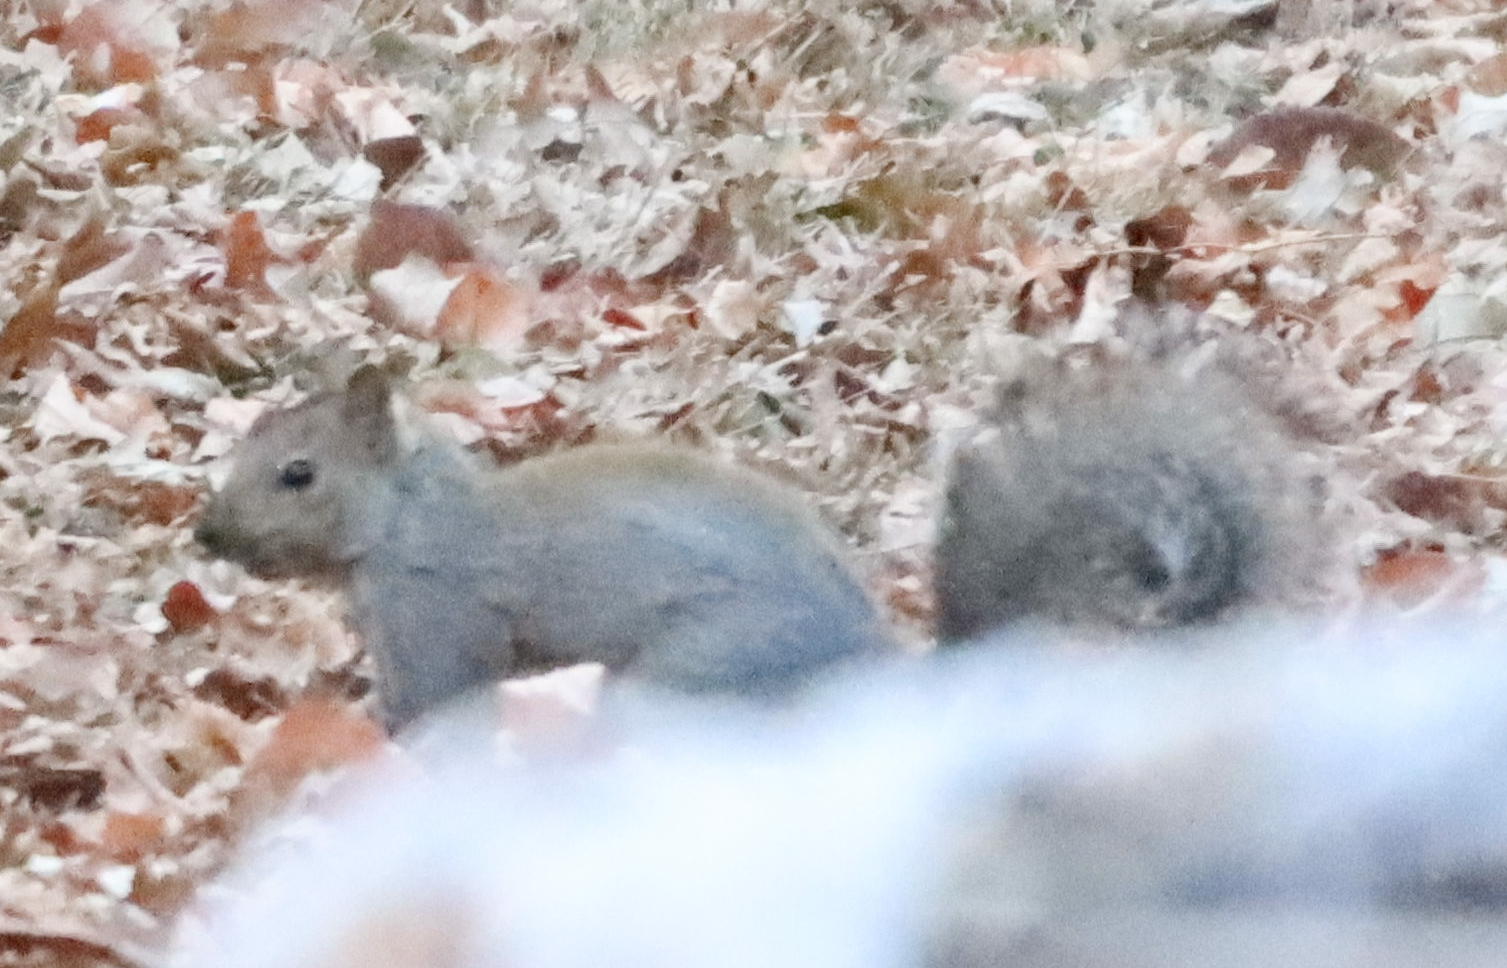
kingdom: Animalia
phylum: Chordata
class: Mammalia
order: Rodentia
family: Sciuridae
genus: Sciurus
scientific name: Sciurus carolinensis
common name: Eastern gray squirrel
